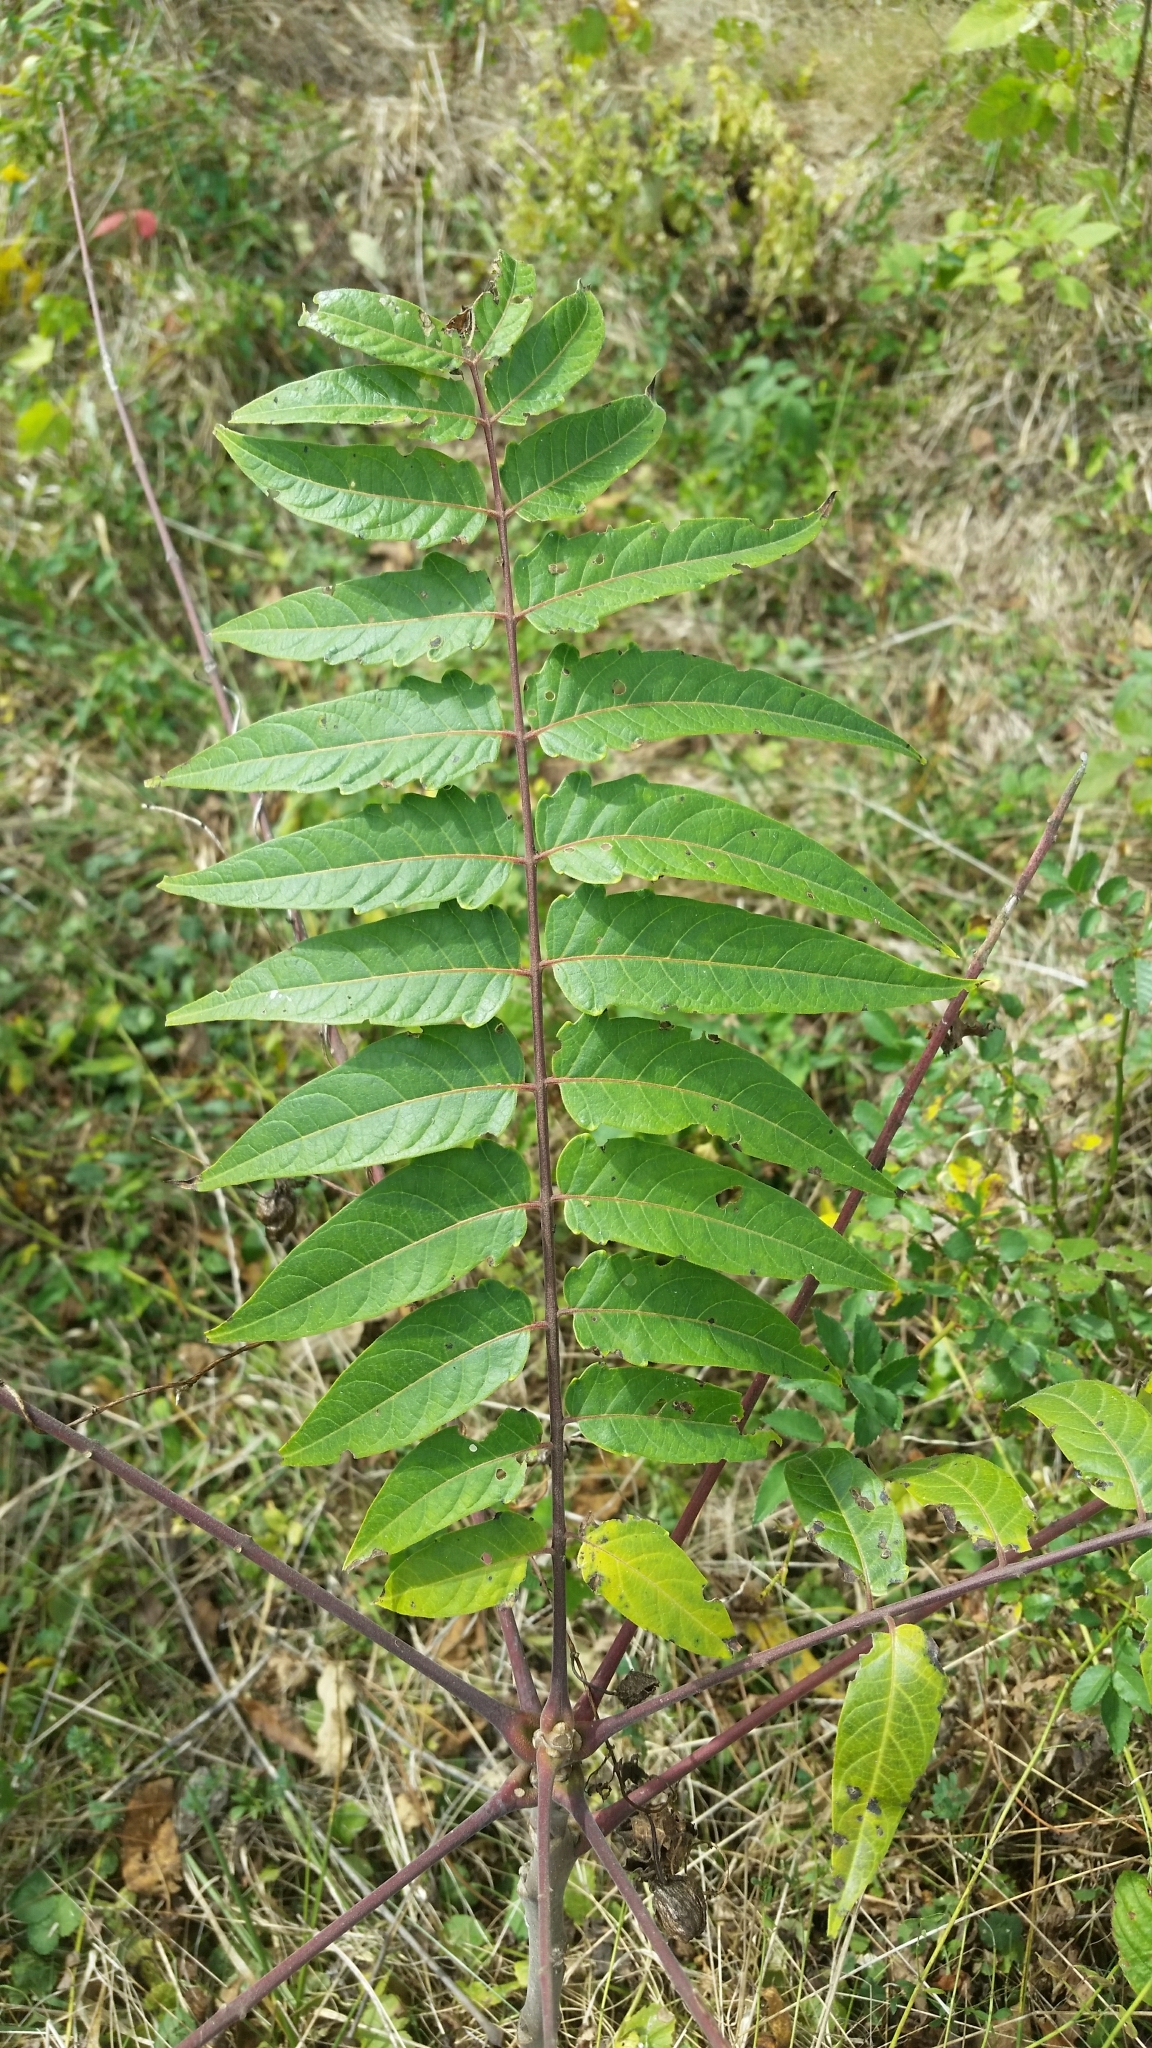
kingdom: Plantae
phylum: Tracheophyta
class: Magnoliopsida
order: Sapindales
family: Simaroubaceae
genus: Ailanthus
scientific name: Ailanthus altissima
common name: Tree-of-heaven
